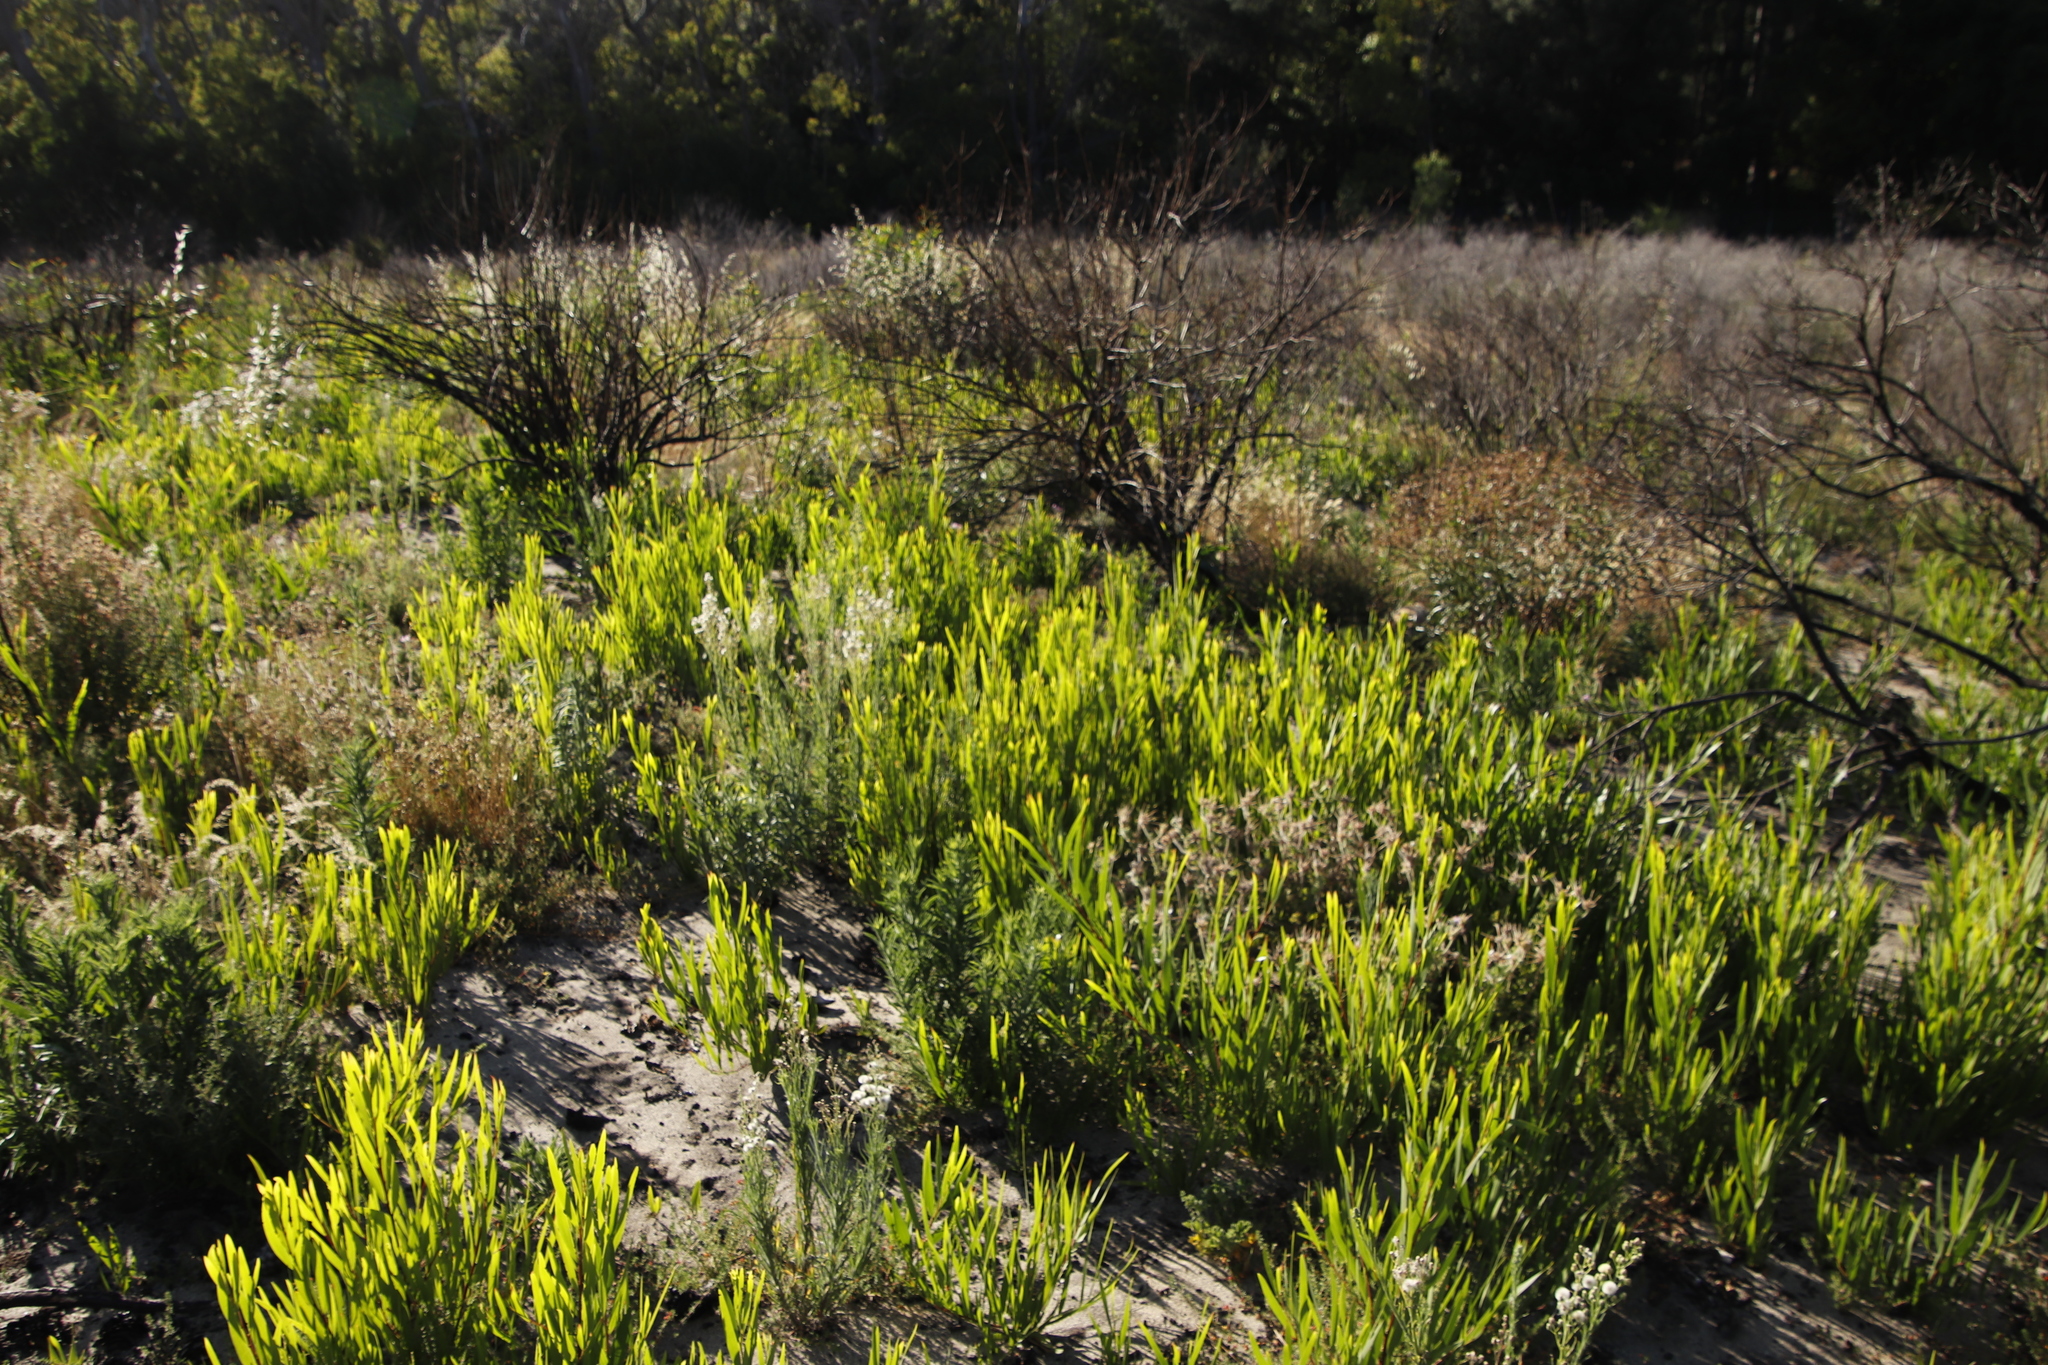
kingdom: Plantae
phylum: Tracheophyta
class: Magnoliopsida
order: Fabales
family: Fabaceae
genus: Acacia
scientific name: Acacia longifolia
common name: Sydney golden wattle
